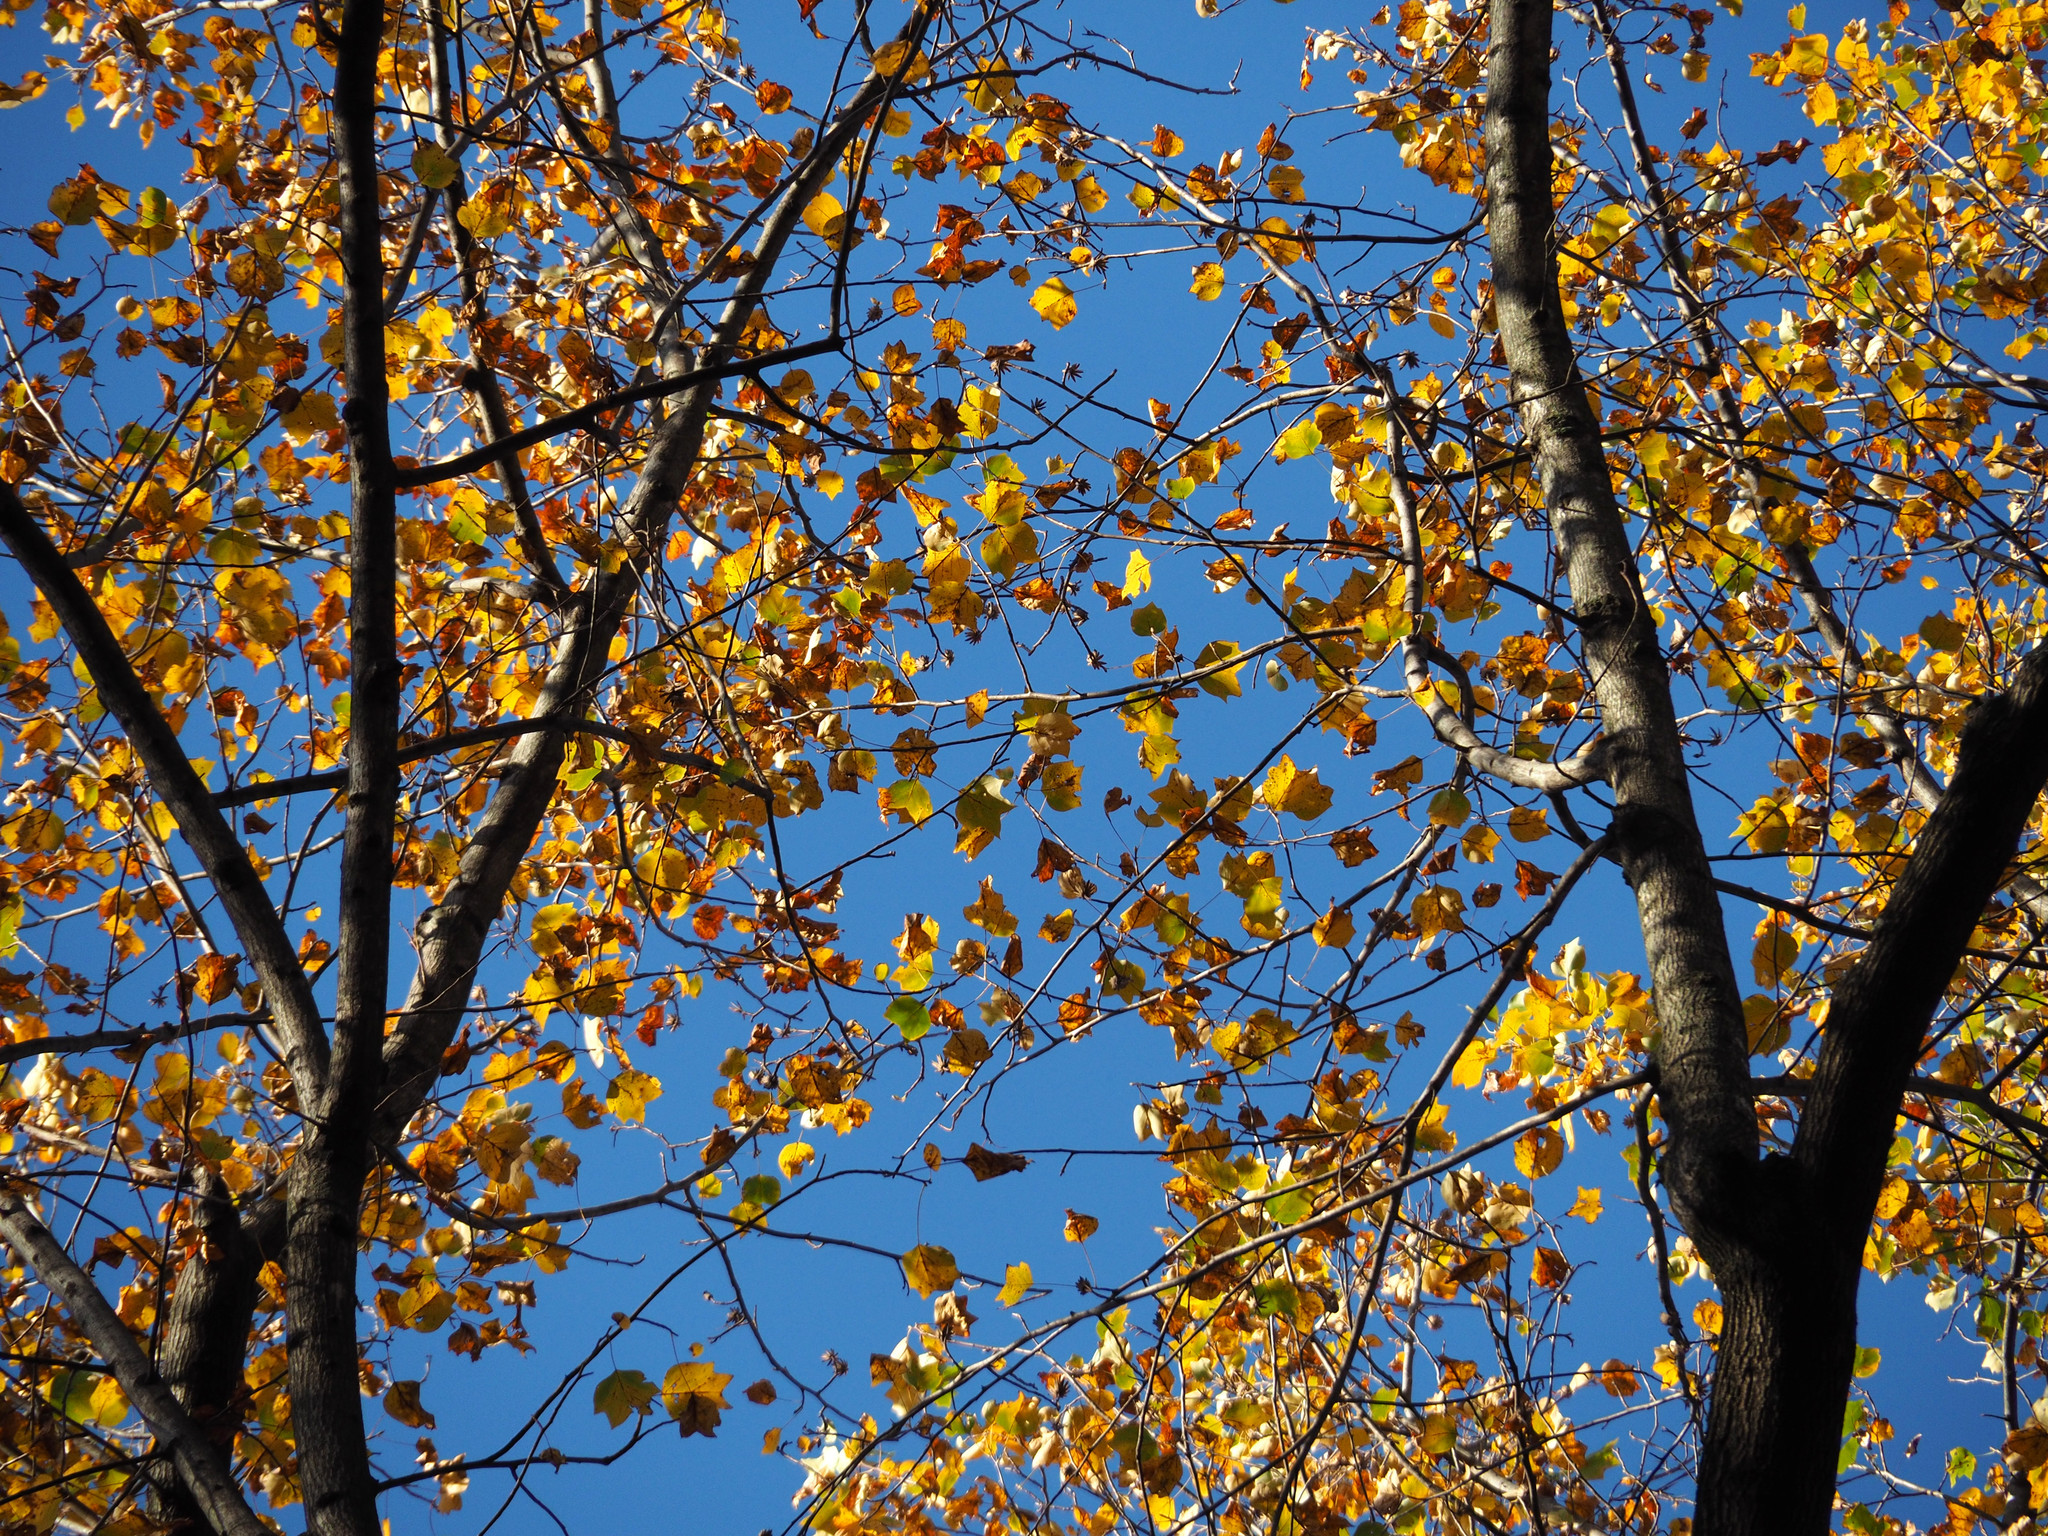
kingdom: Plantae
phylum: Tracheophyta
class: Magnoliopsida
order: Magnoliales
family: Magnoliaceae
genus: Liriodendron
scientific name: Liriodendron tulipifera
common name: Tulip tree
